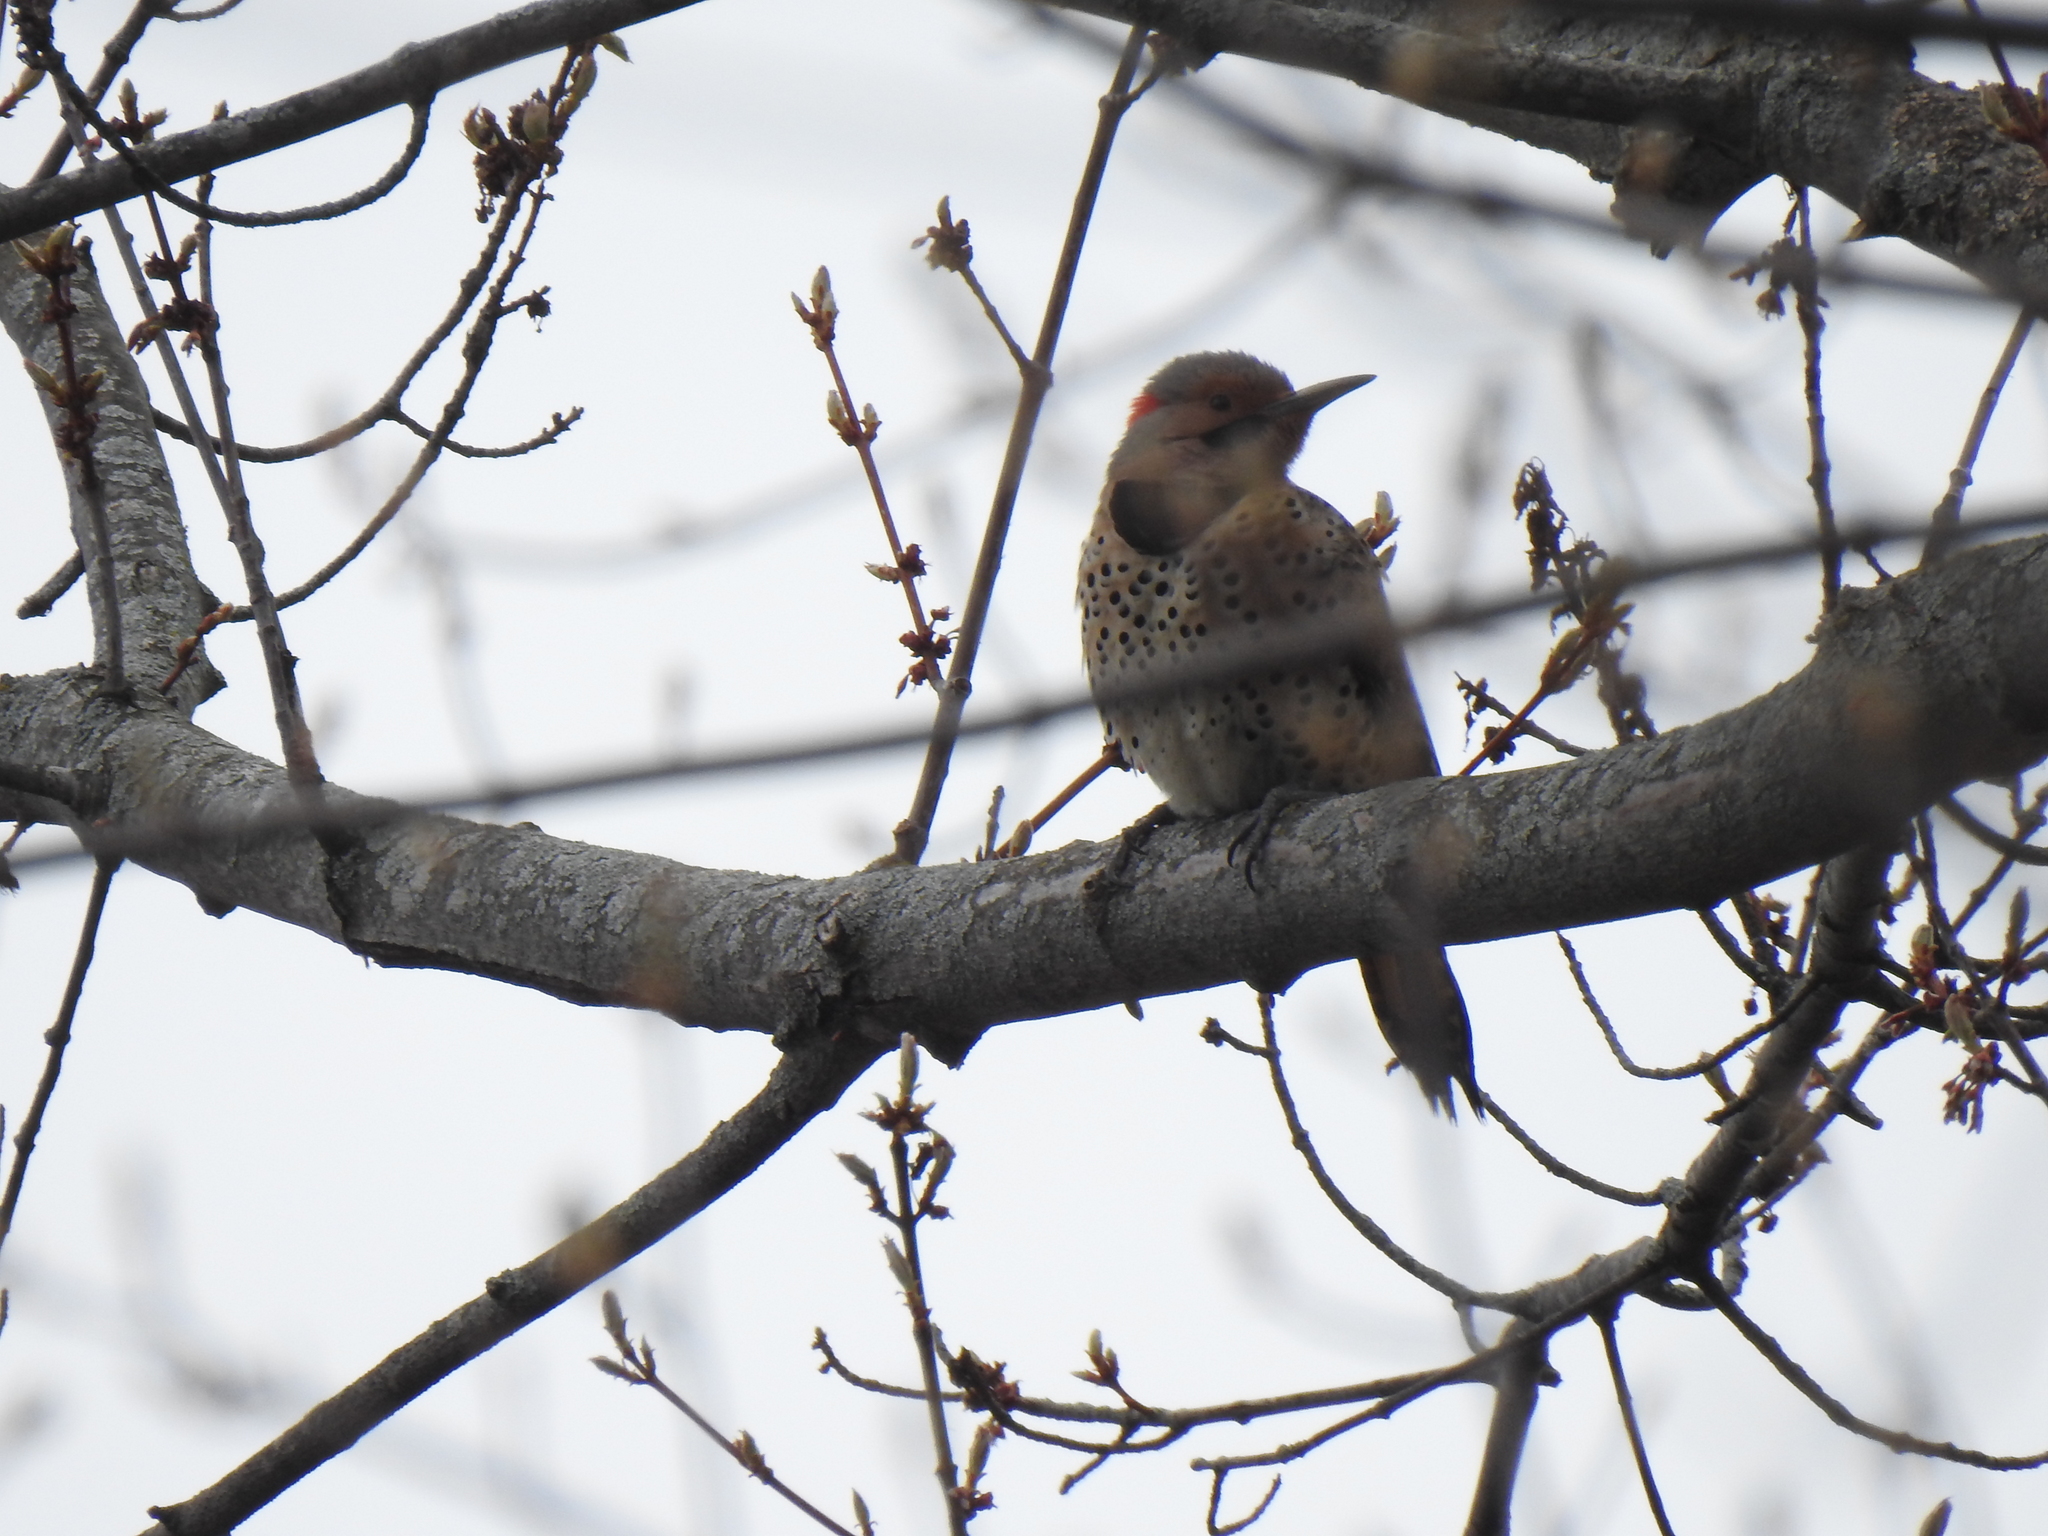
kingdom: Animalia
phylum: Chordata
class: Aves
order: Piciformes
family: Picidae
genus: Colaptes
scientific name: Colaptes auratus
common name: Northern flicker
